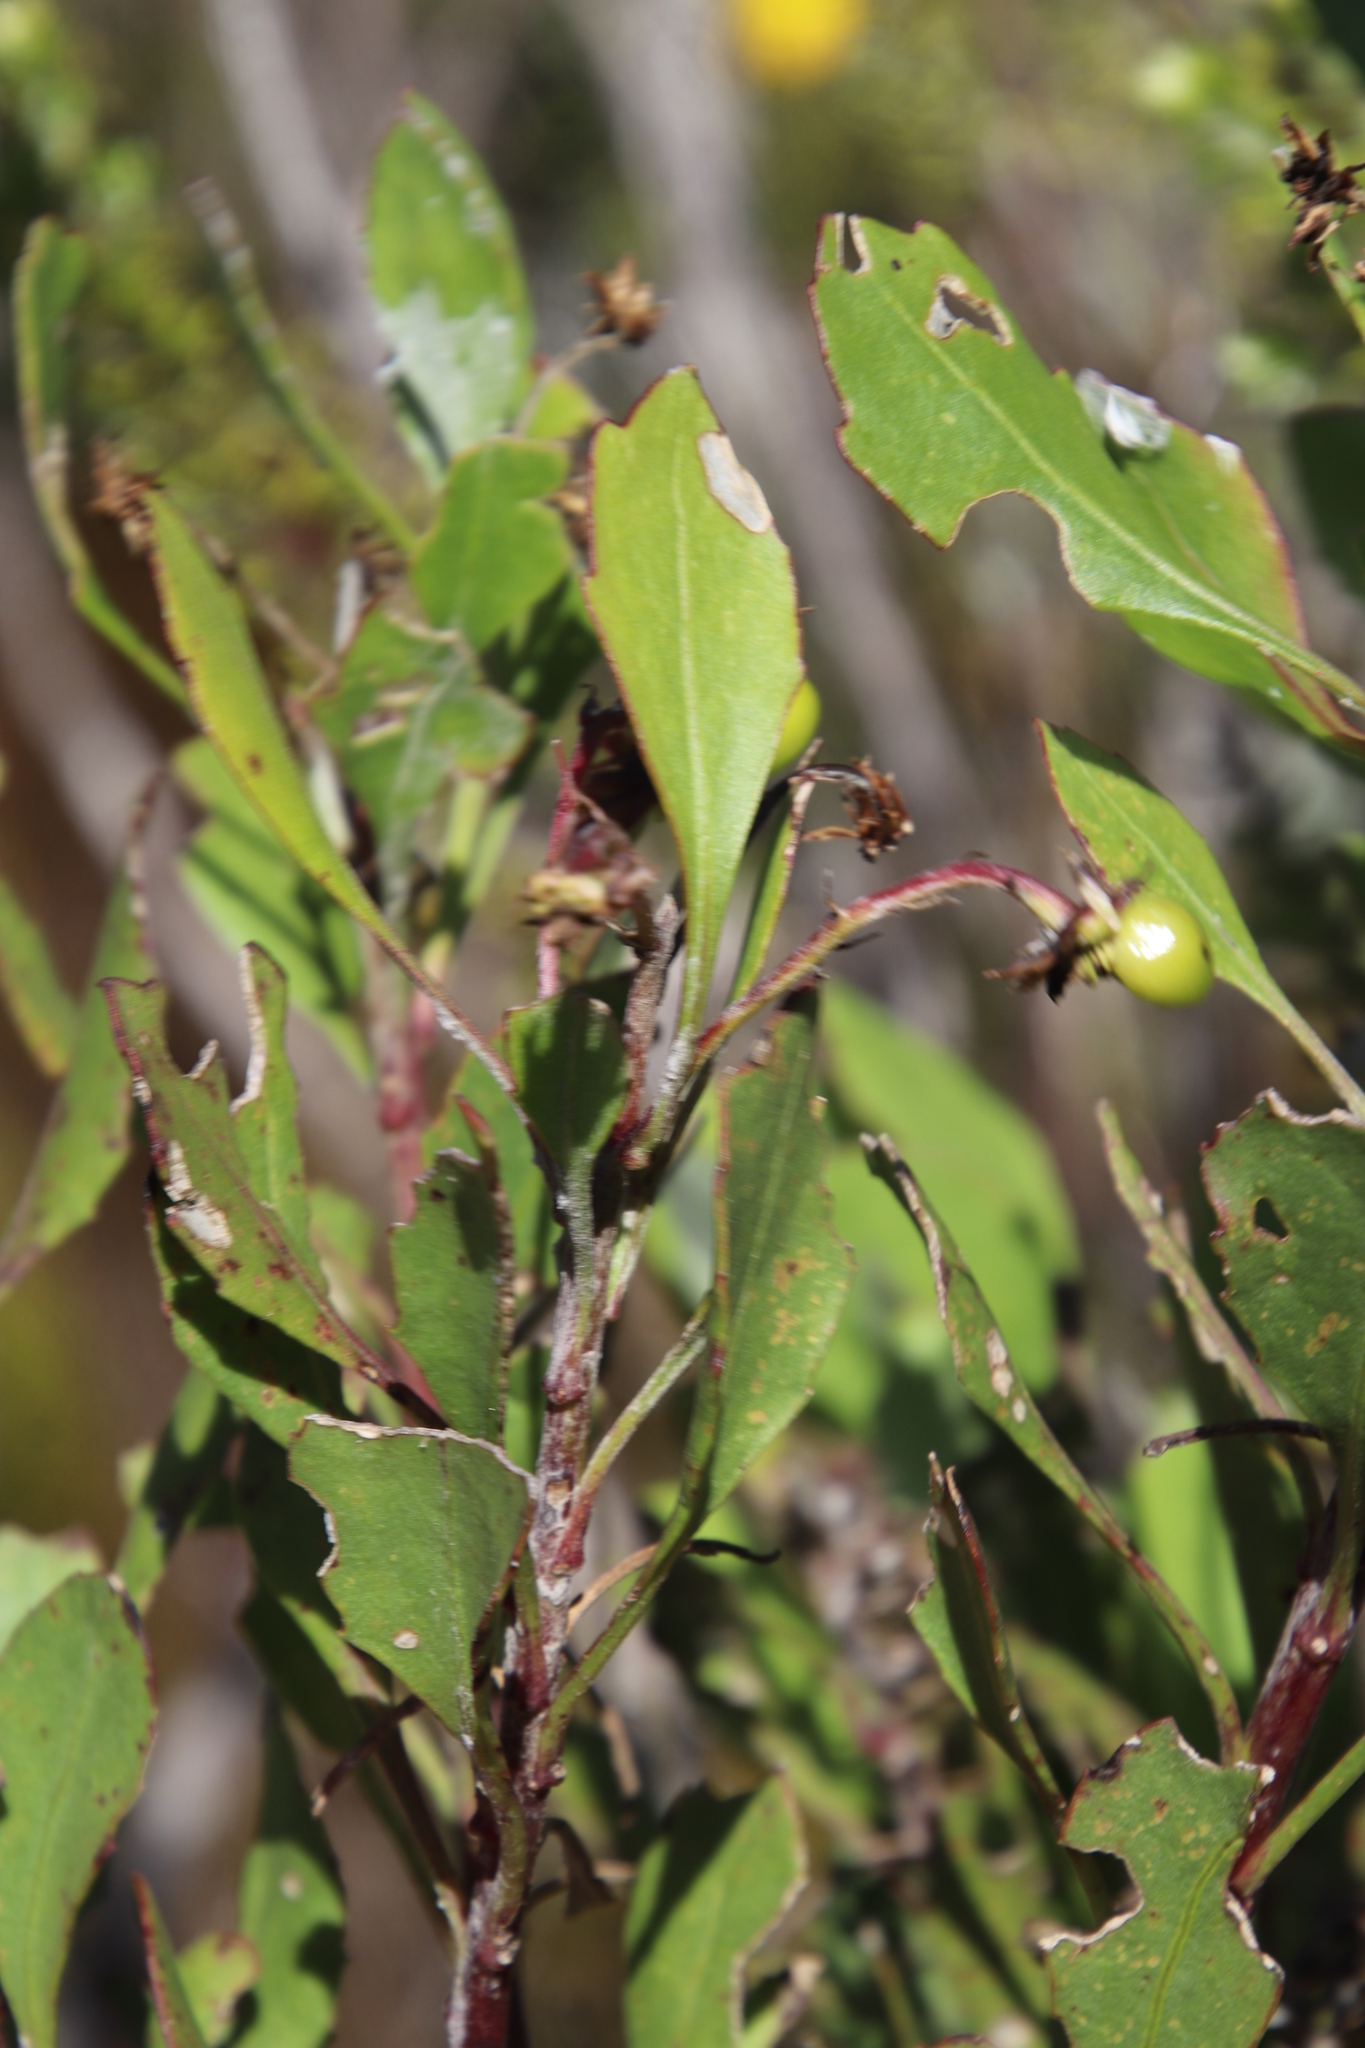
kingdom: Plantae
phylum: Tracheophyta
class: Magnoliopsida
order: Asterales
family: Asteraceae
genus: Osteospermum
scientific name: Osteospermum moniliferum
